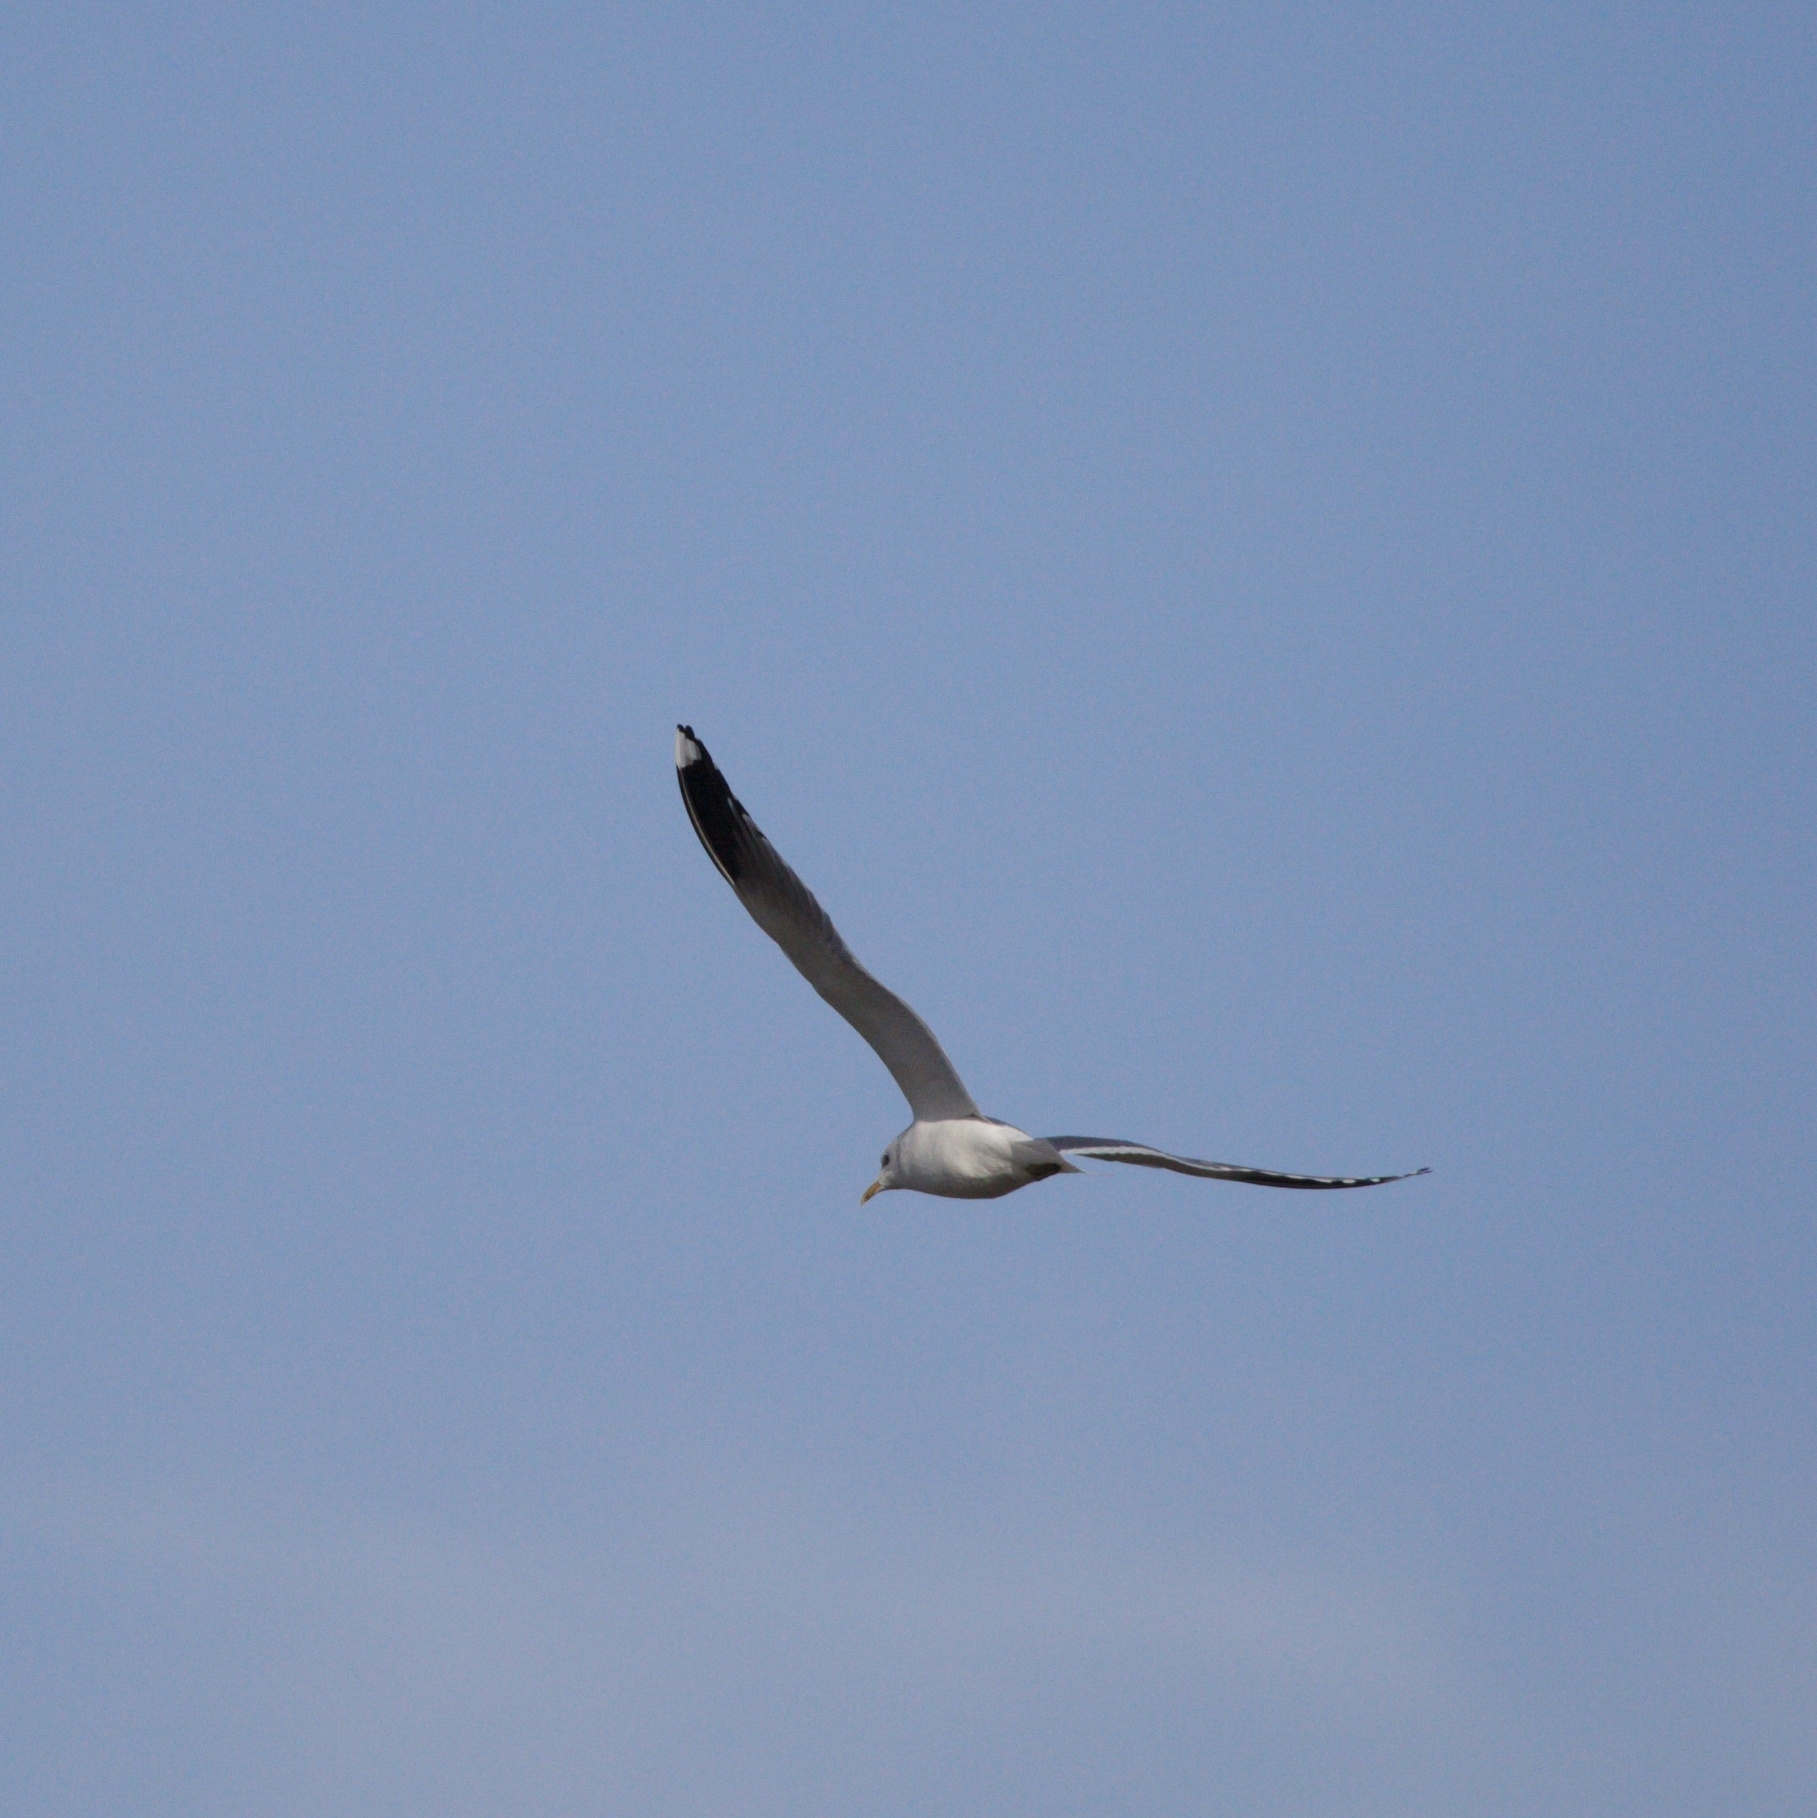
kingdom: Animalia
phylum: Chordata
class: Aves
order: Charadriiformes
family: Laridae
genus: Larus
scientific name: Larus canus
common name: Mew gull
